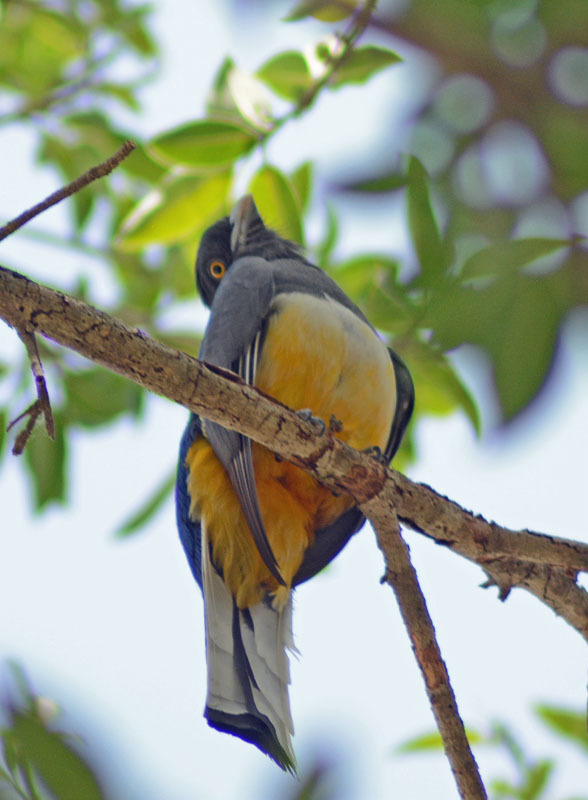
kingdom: Animalia
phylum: Chordata
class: Aves
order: Trogoniformes
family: Trogonidae
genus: Trogon
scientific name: Trogon citreolus
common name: Citreoline trogon
